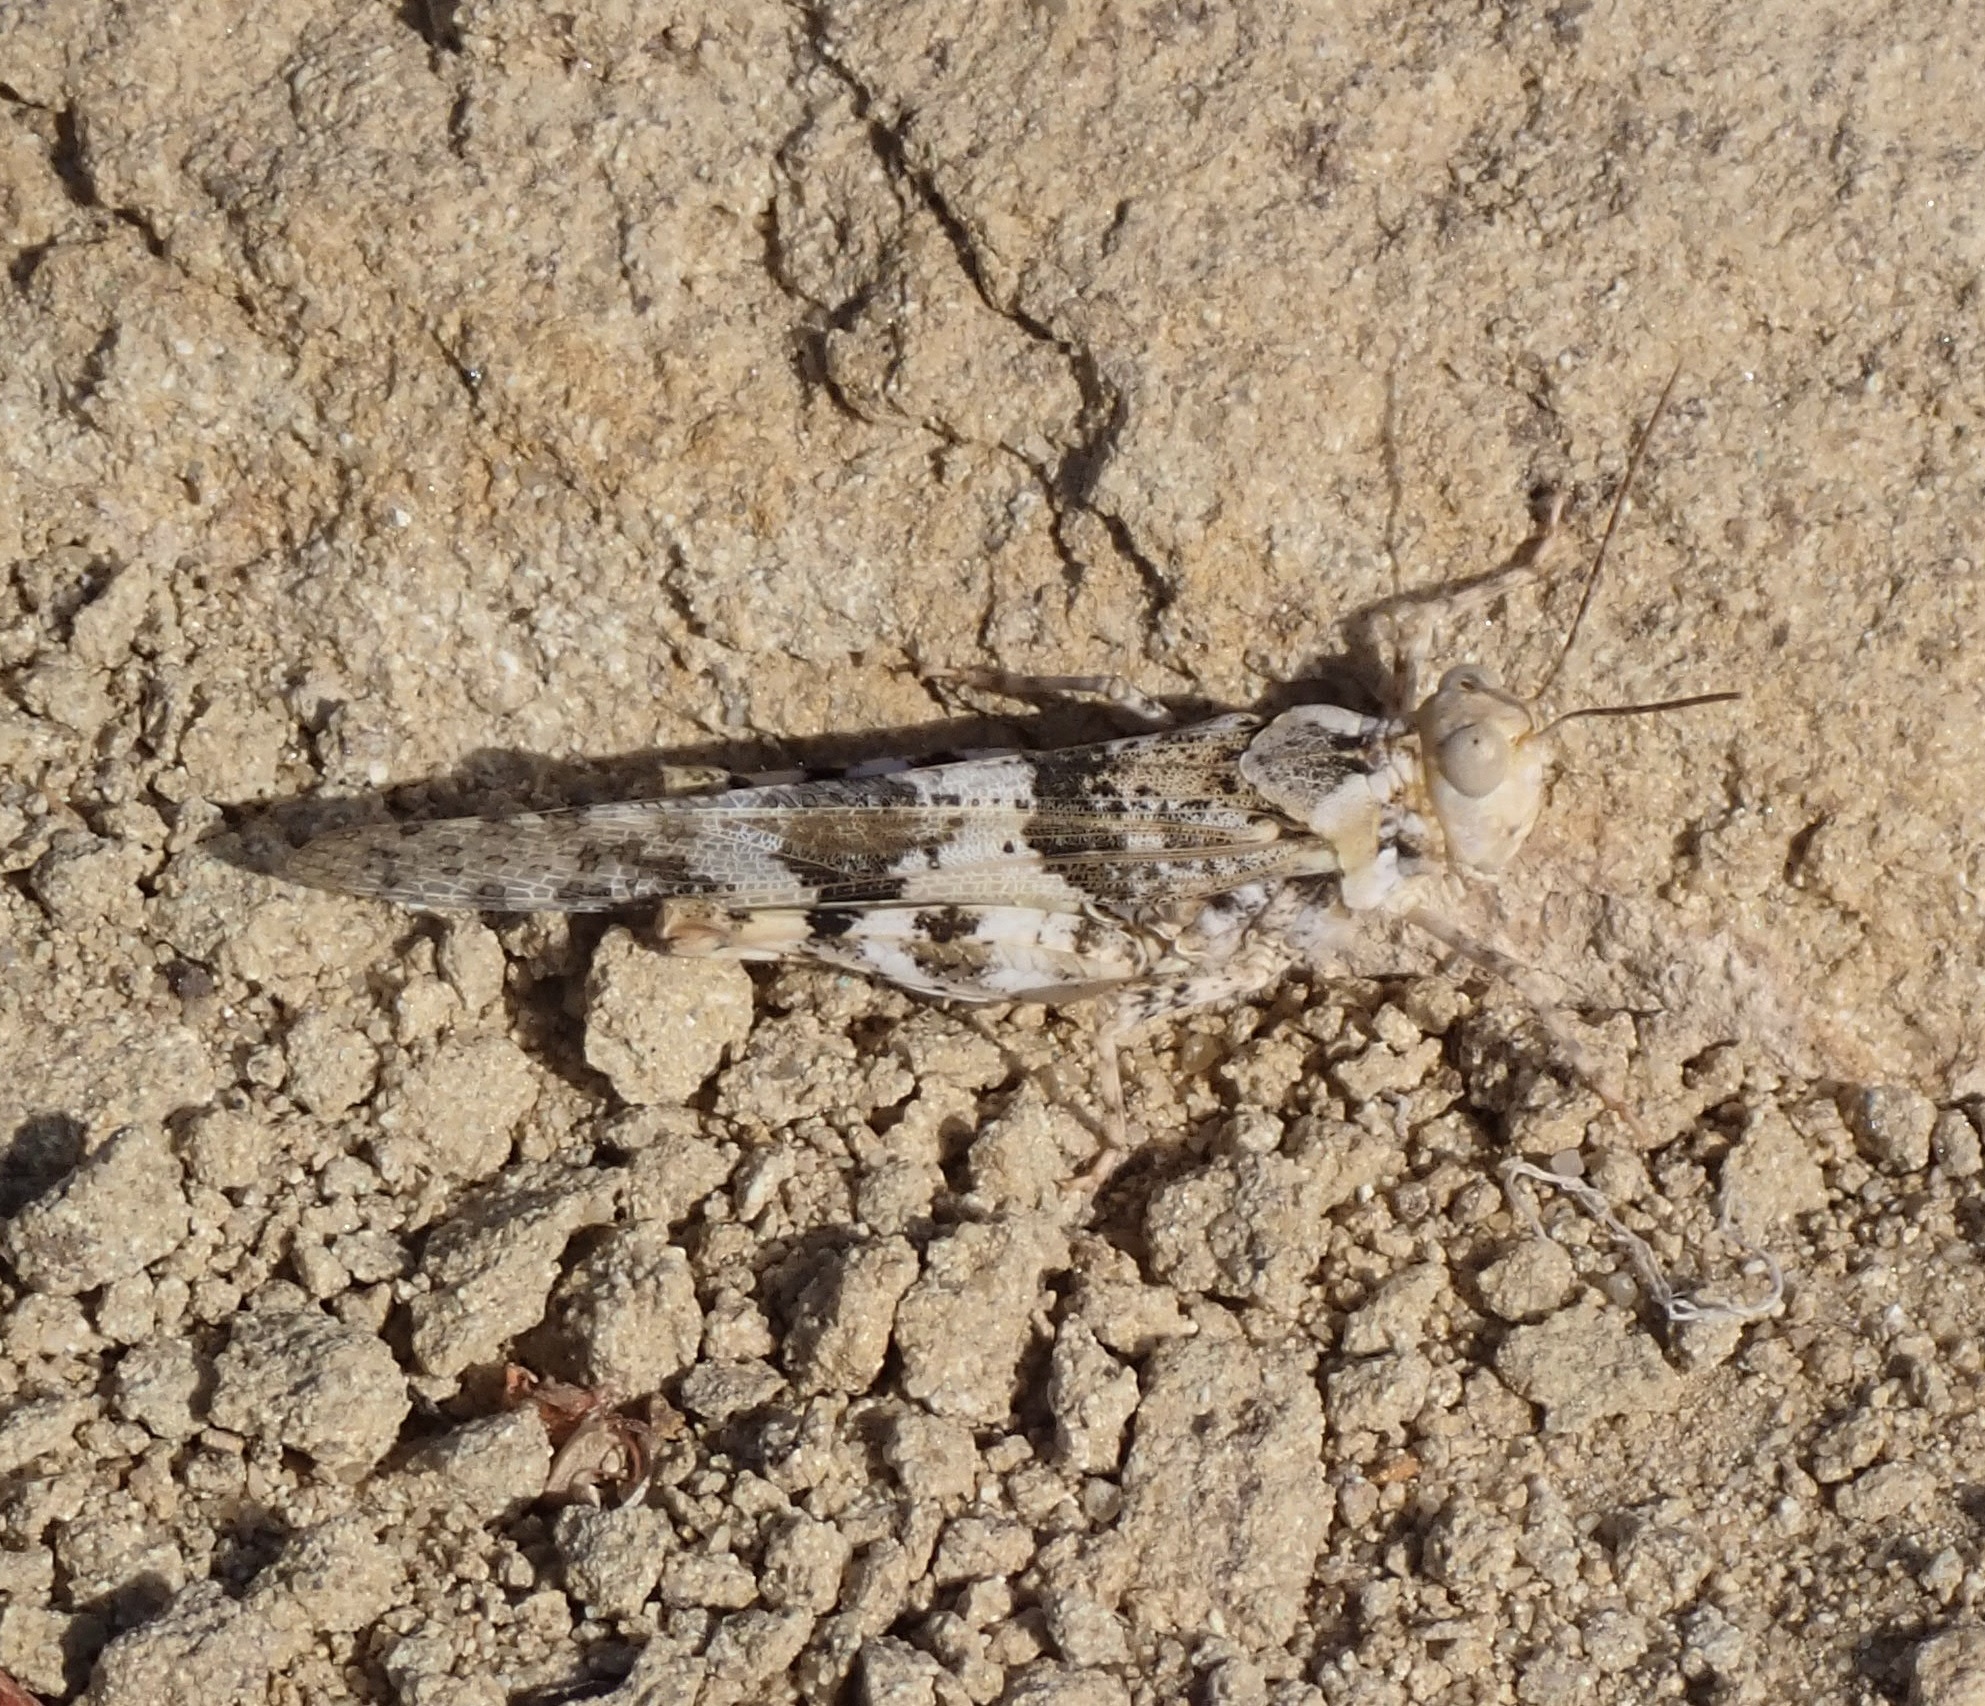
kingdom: Animalia
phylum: Arthropoda
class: Insecta
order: Orthoptera
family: Acrididae
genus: Trimerotropis
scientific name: Trimerotropis pallidipennis
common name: Pallid-winged grasshopper
